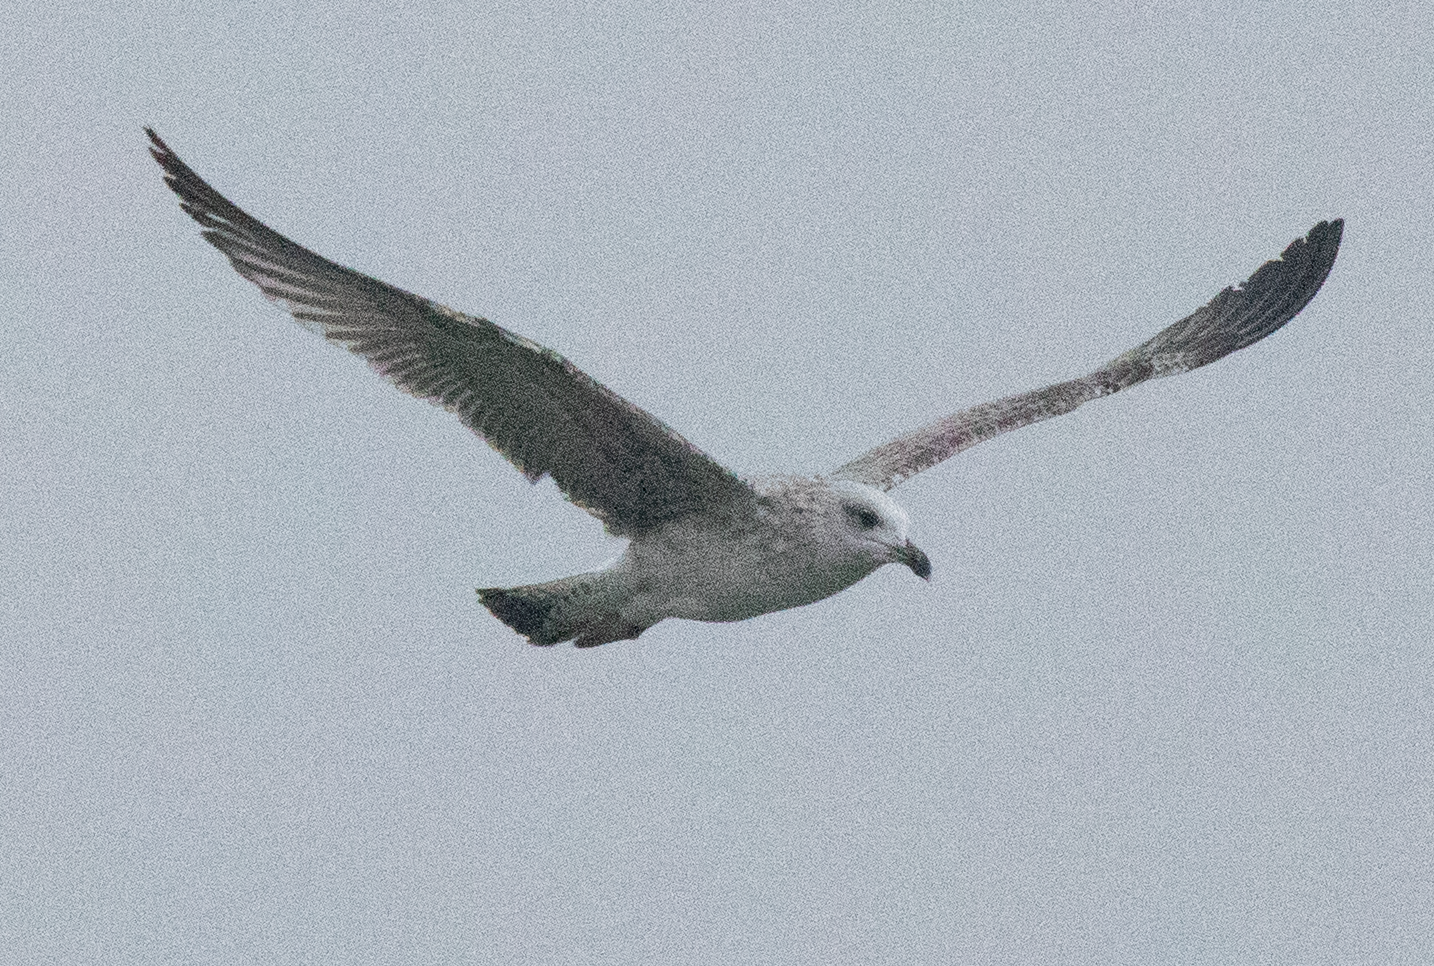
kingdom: Animalia
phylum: Chordata
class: Aves
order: Charadriiformes
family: Laridae
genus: Larus
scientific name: Larus michahellis
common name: Yellow-legged gull
